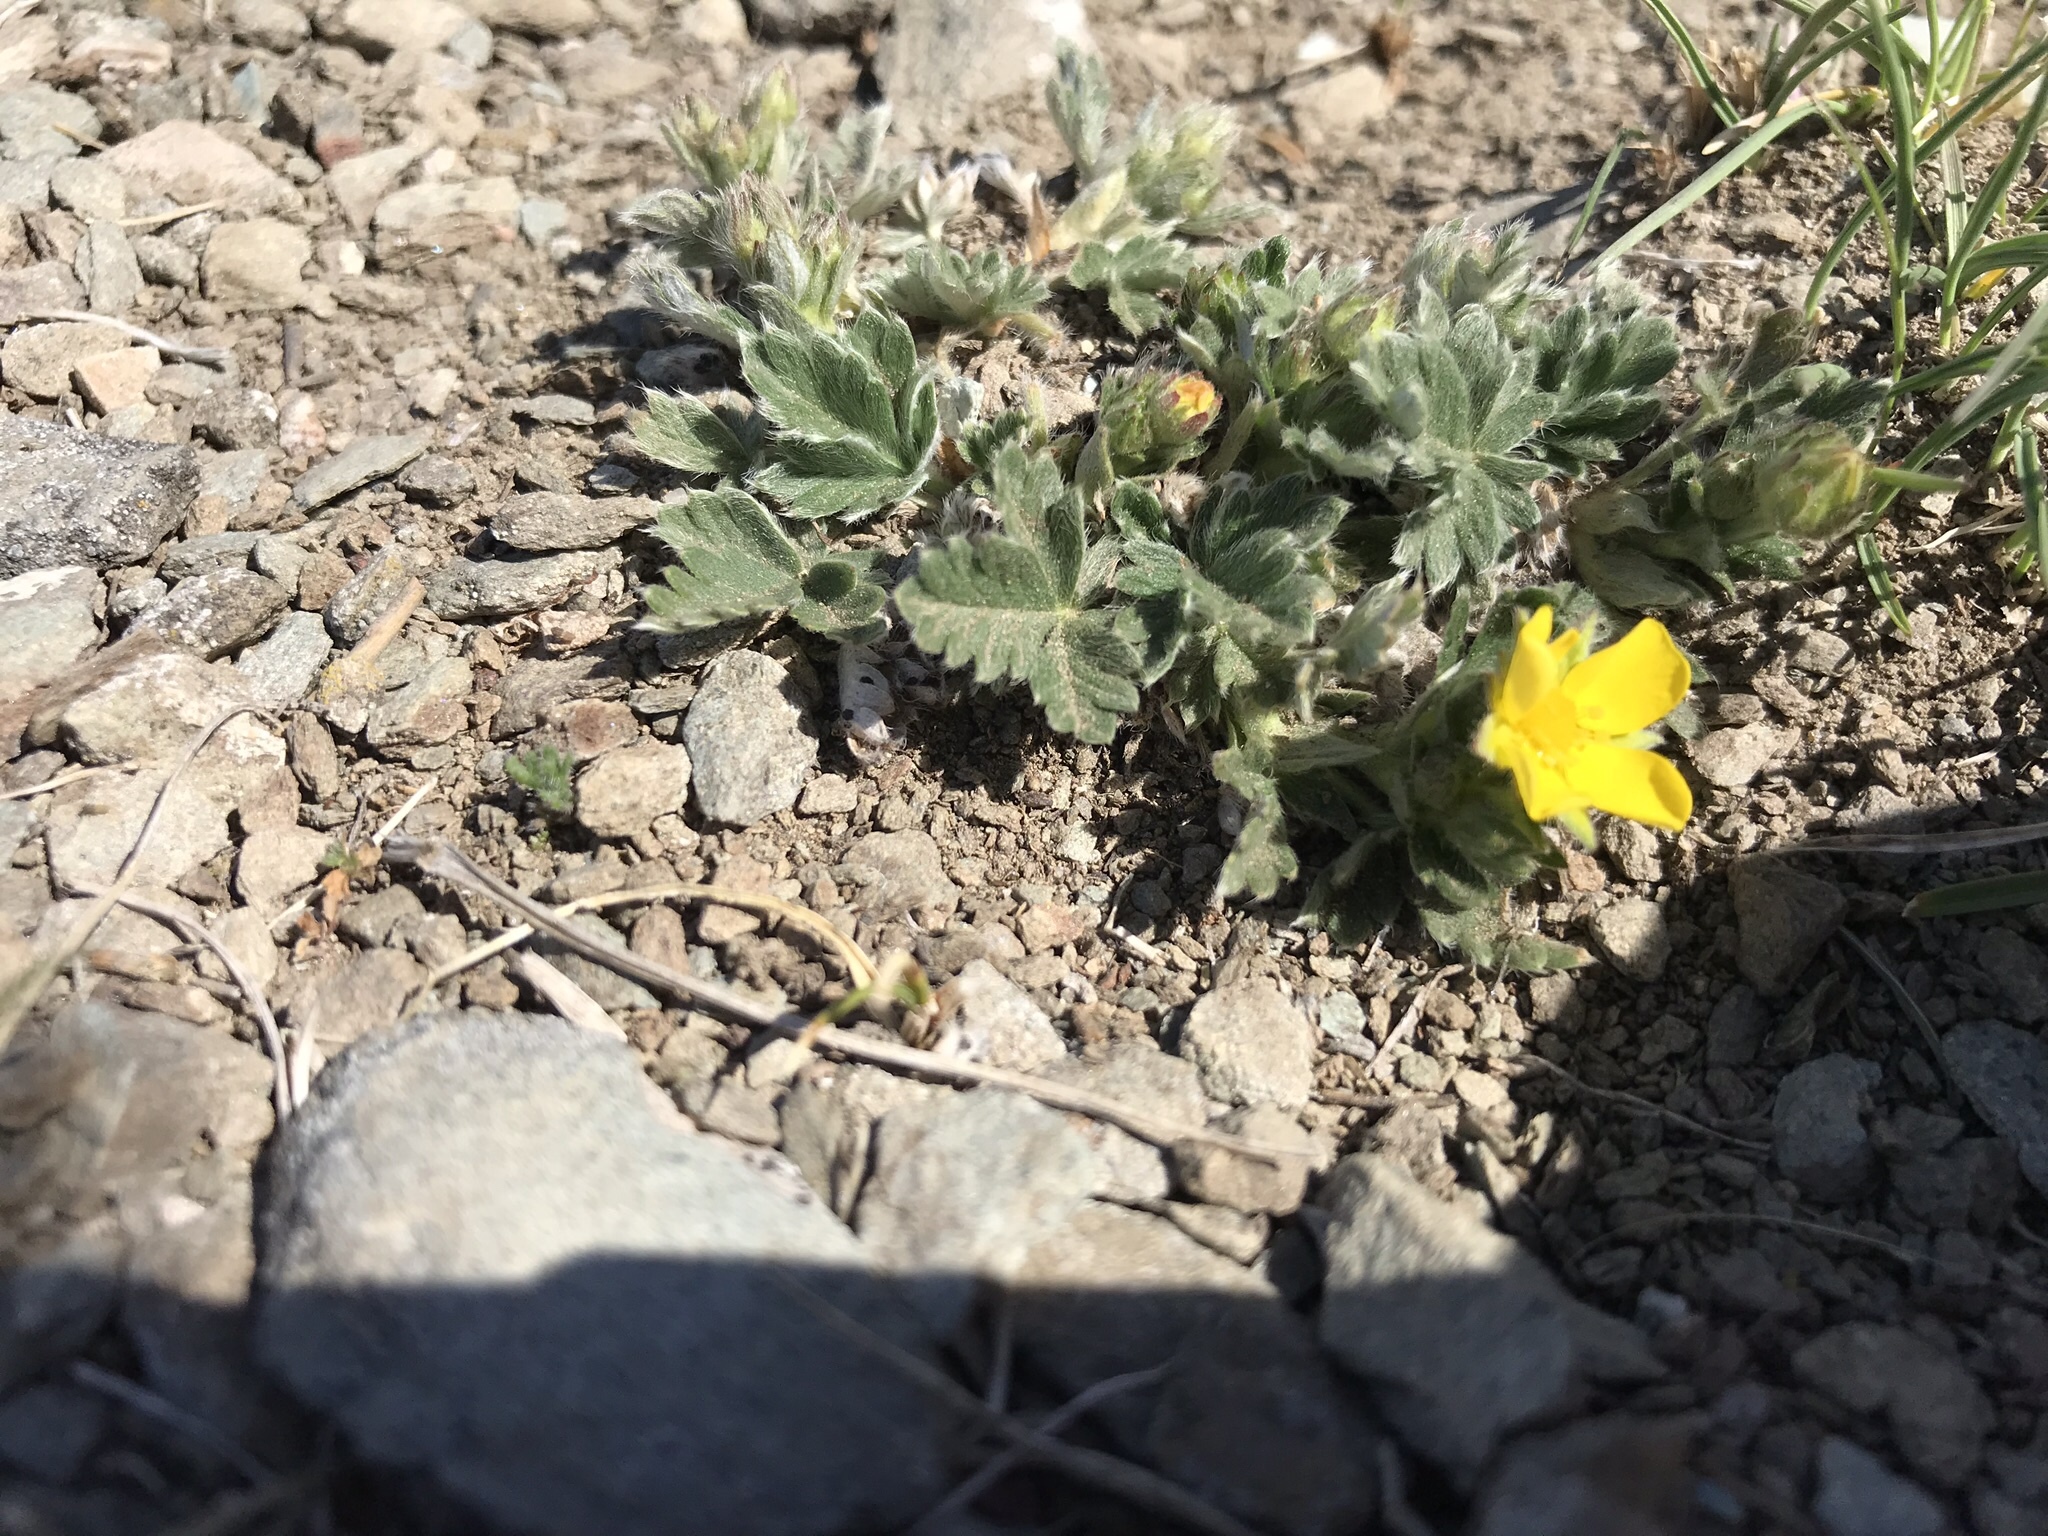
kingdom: Plantae
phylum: Tracheophyta
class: Magnoliopsida
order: Rosales
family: Rosaceae
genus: Potentilla
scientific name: Potentilla concinna
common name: Early cinquefoil
